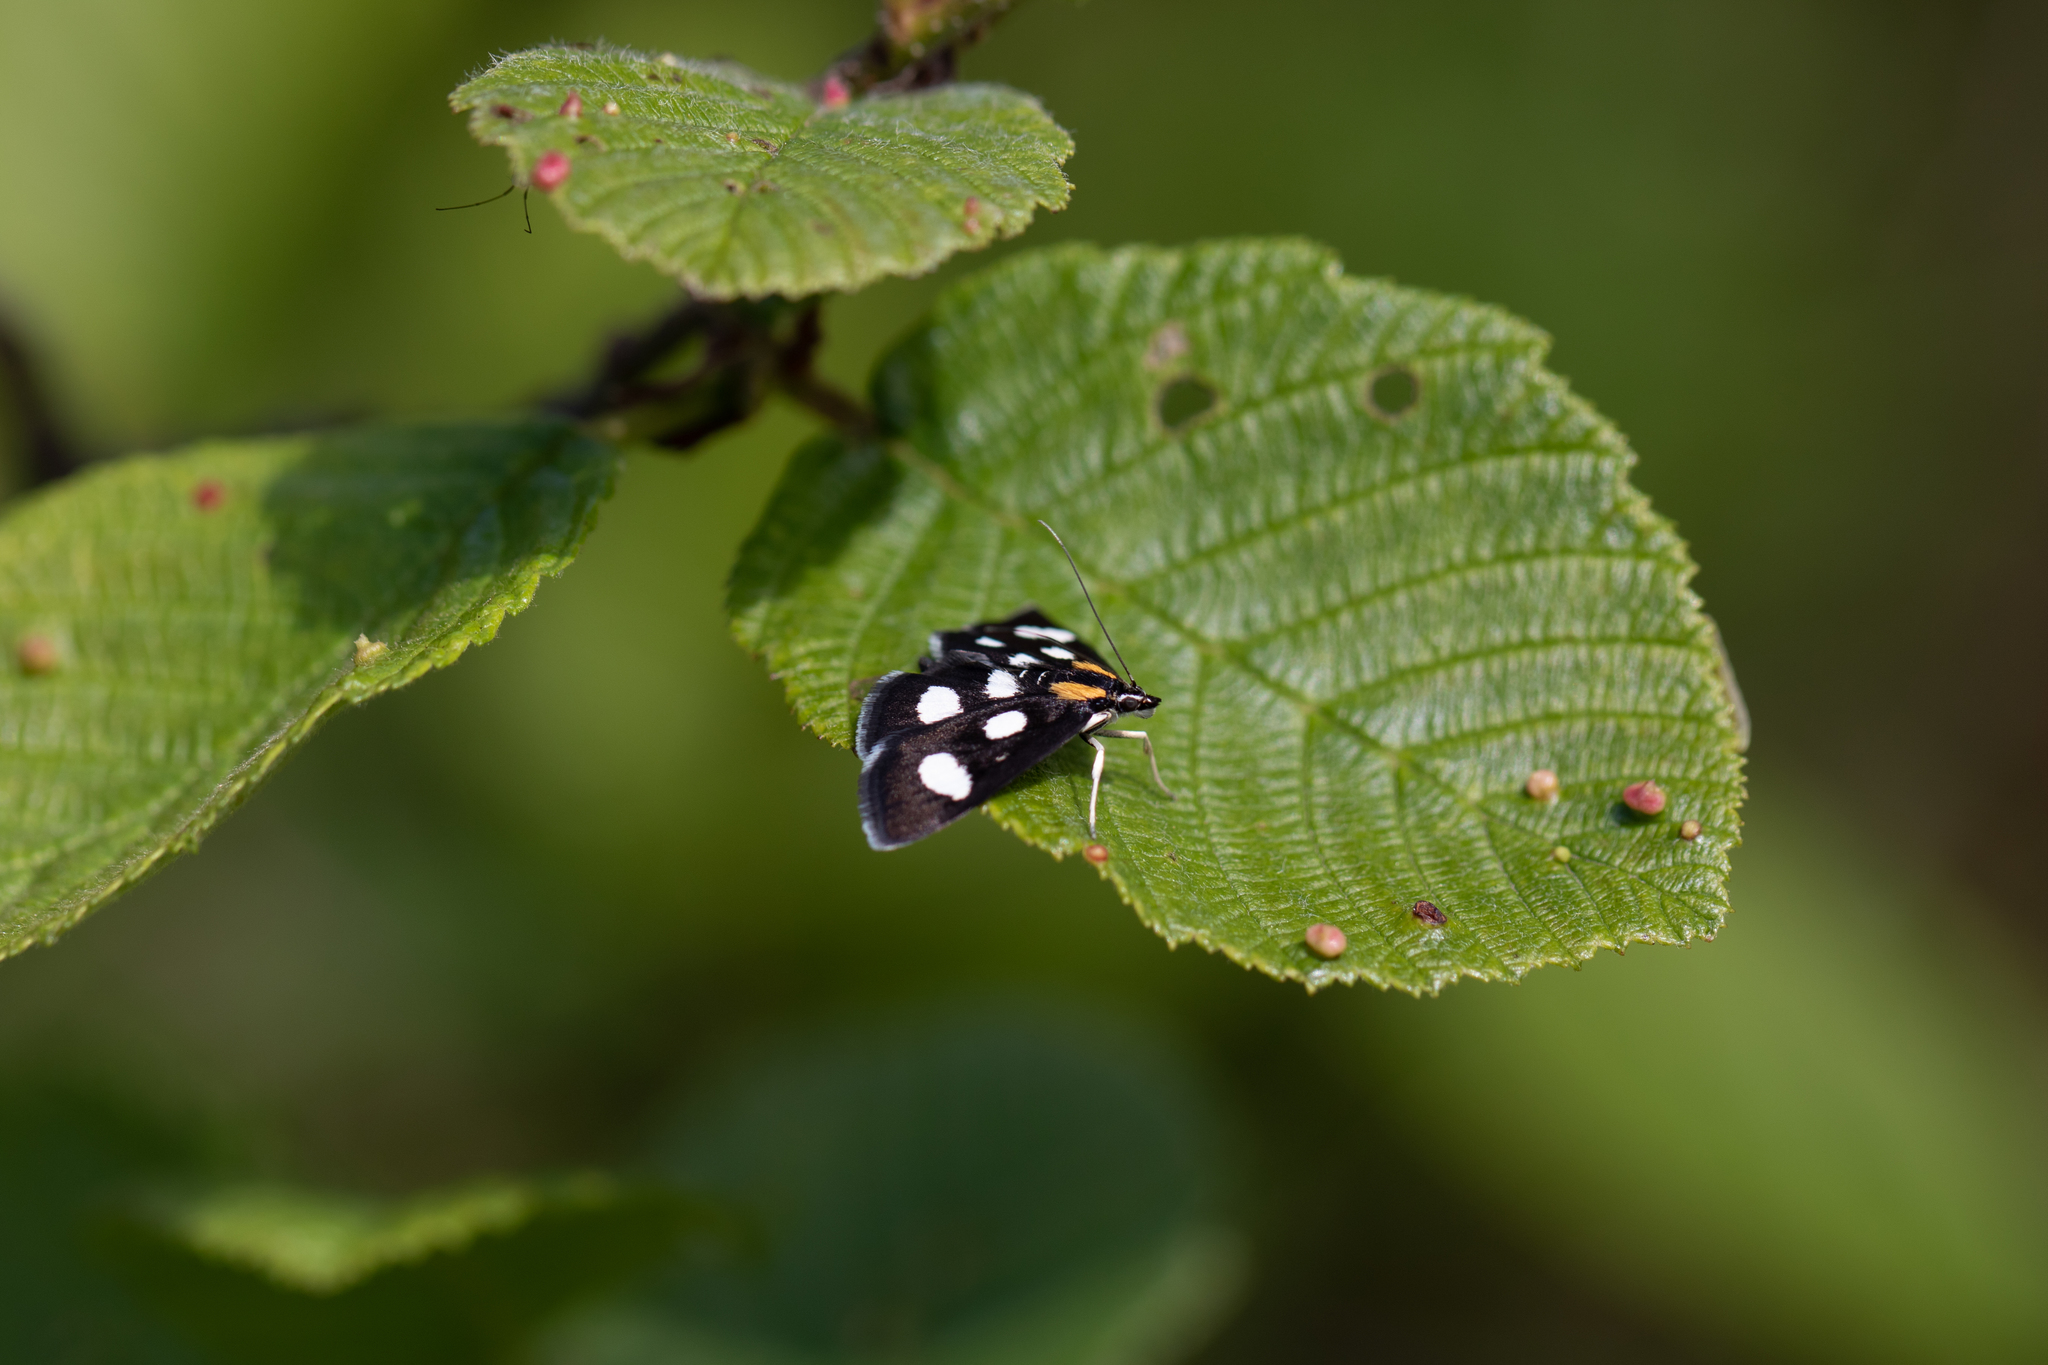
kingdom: Animalia
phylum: Arthropoda
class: Insecta
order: Lepidoptera
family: Crambidae
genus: Anania
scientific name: Anania funebris
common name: White-spotted sable moth
